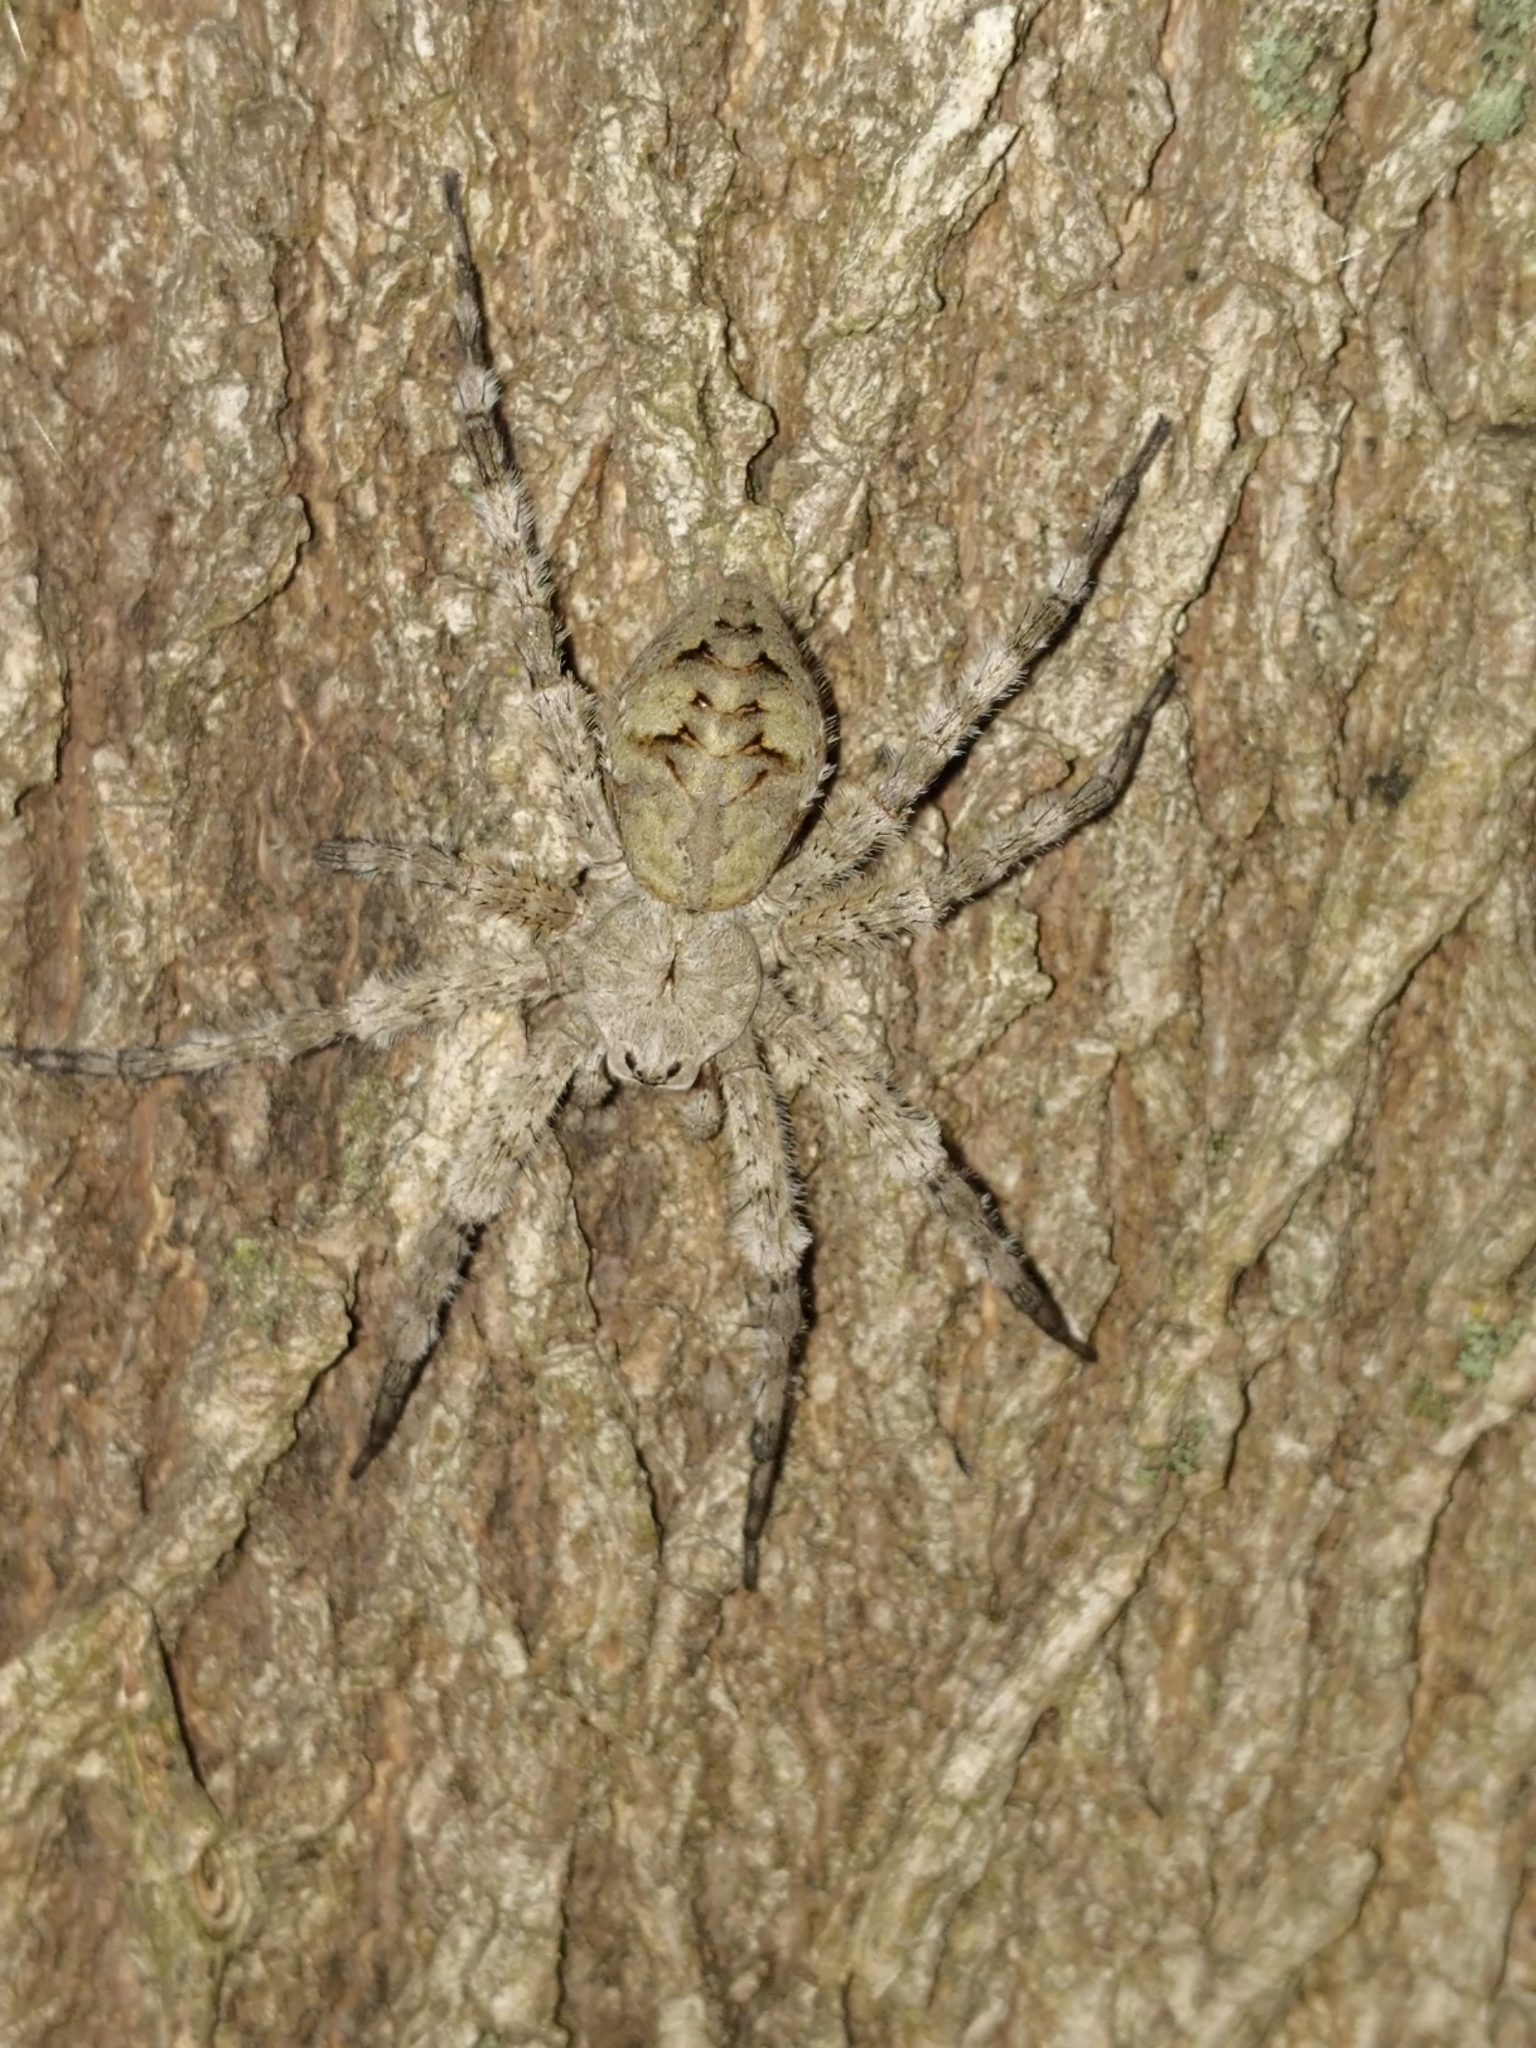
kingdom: Animalia
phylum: Arthropoda
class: Arachnida
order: Araneae
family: Pisauridae
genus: Dolomedes
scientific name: Dolomedes albineus
